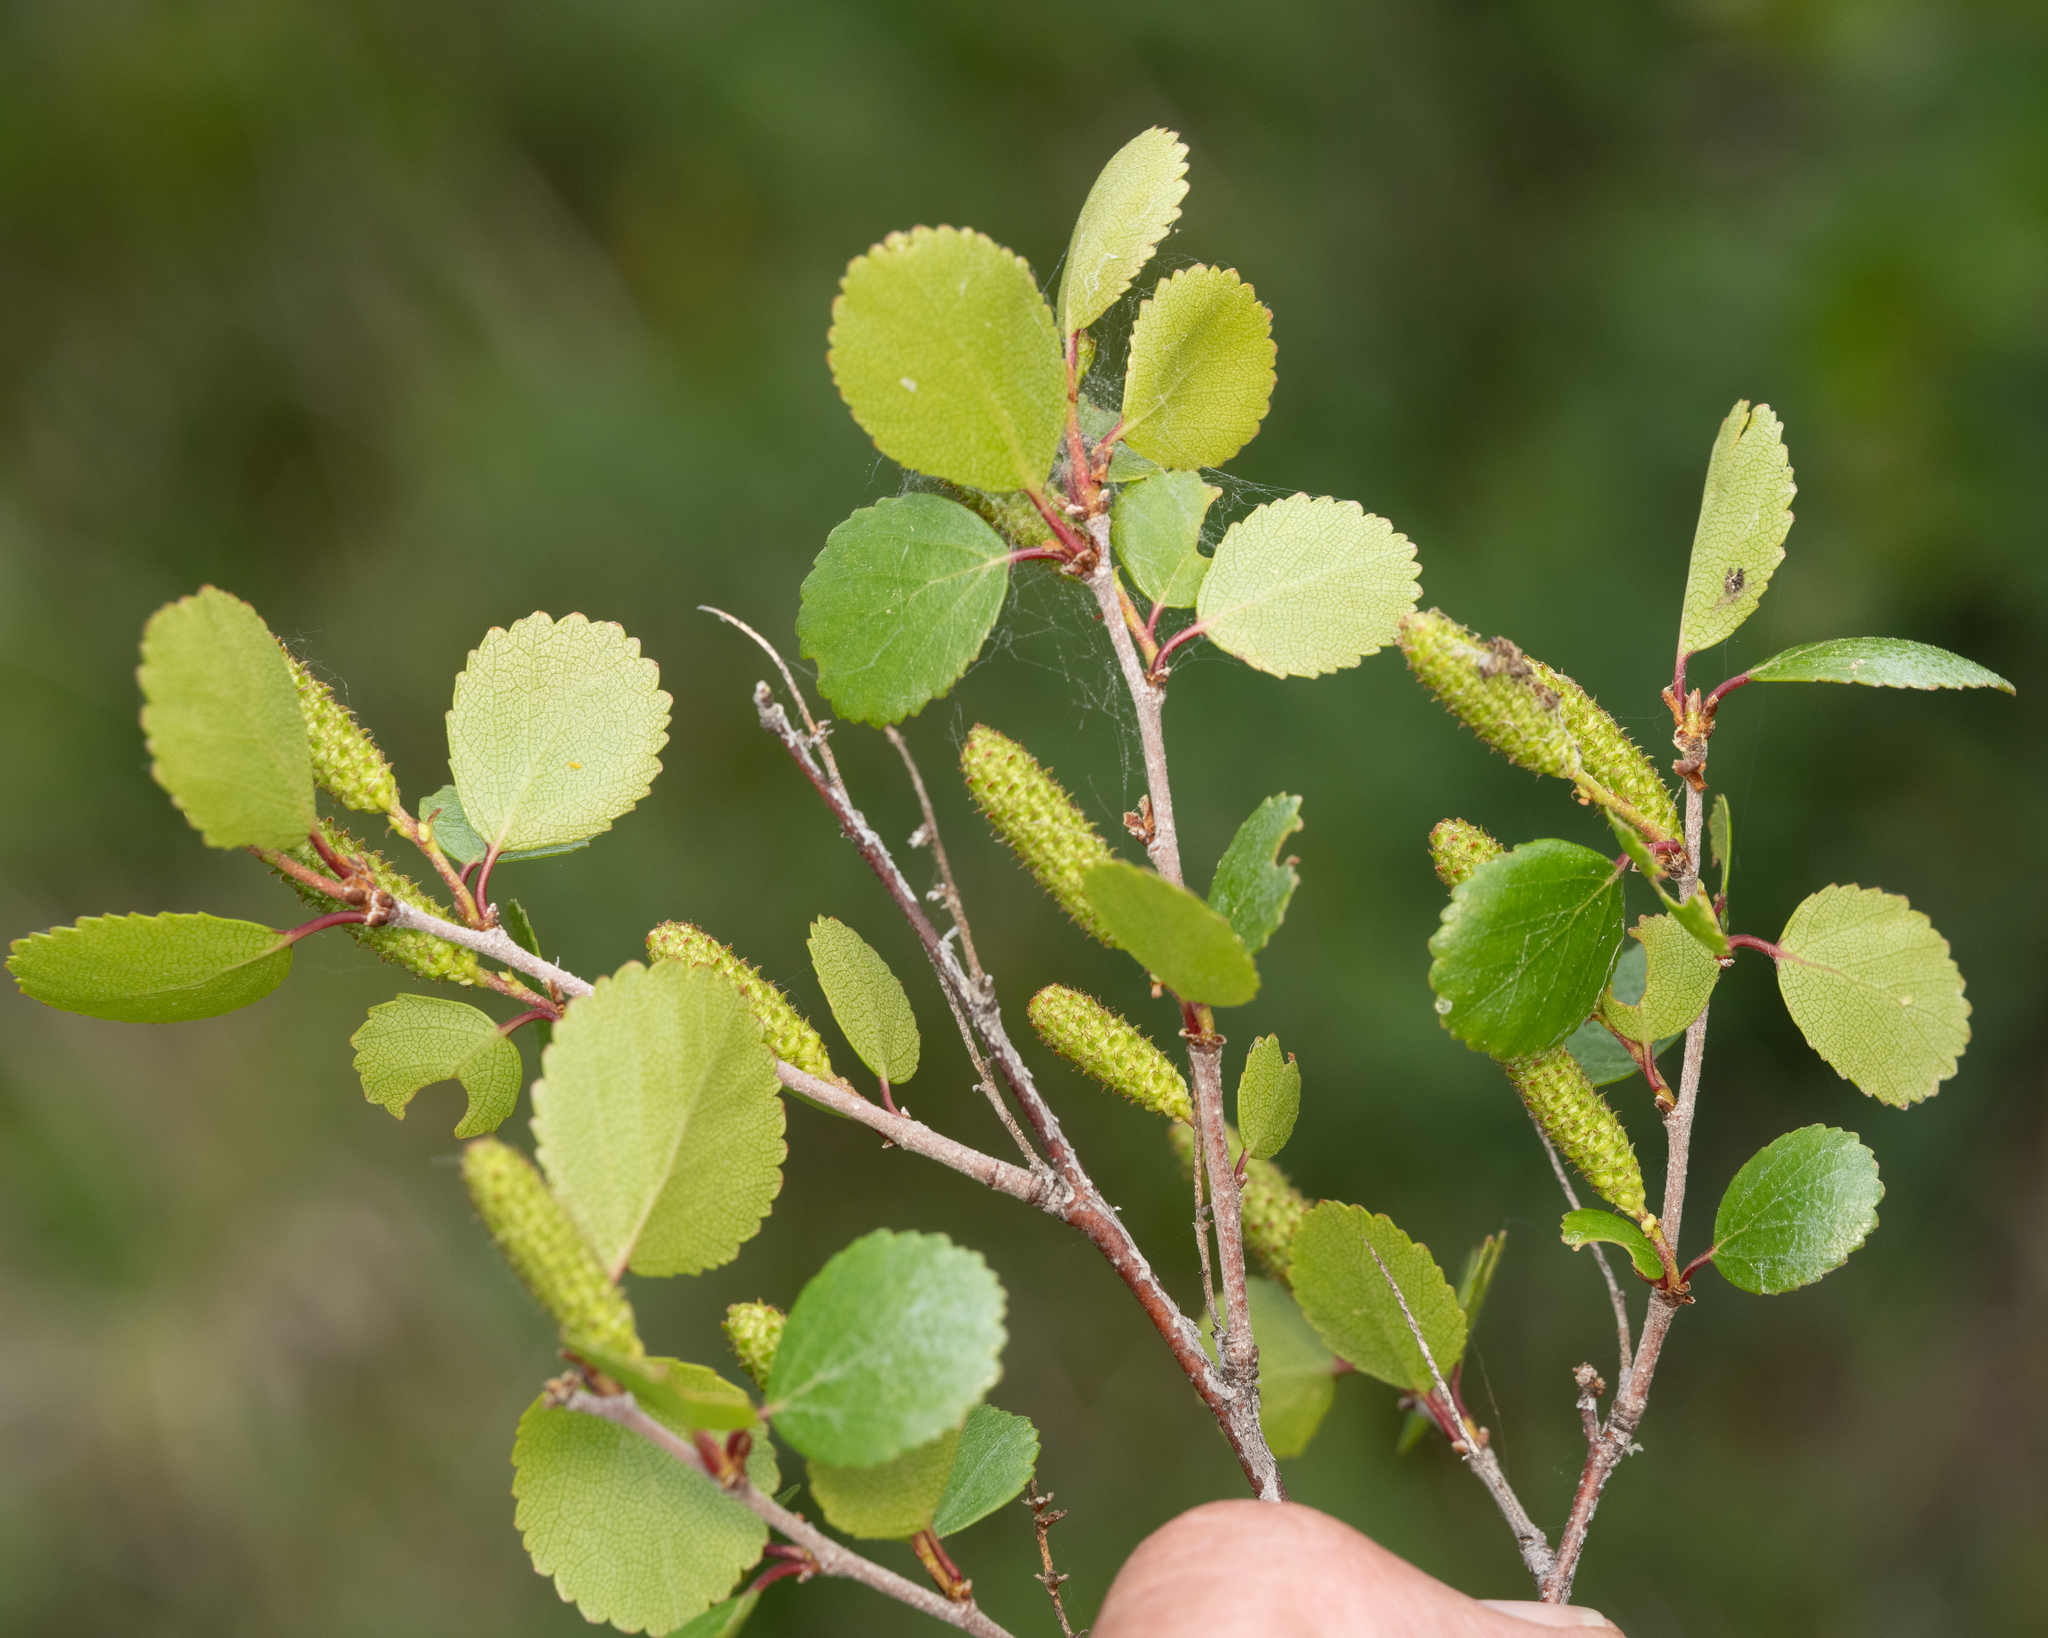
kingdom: Plantae
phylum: Tracheophyta
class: Magnoliopsida
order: Fagales
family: Betulaceae
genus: Betula
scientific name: Betula pumila
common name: Bog birch
